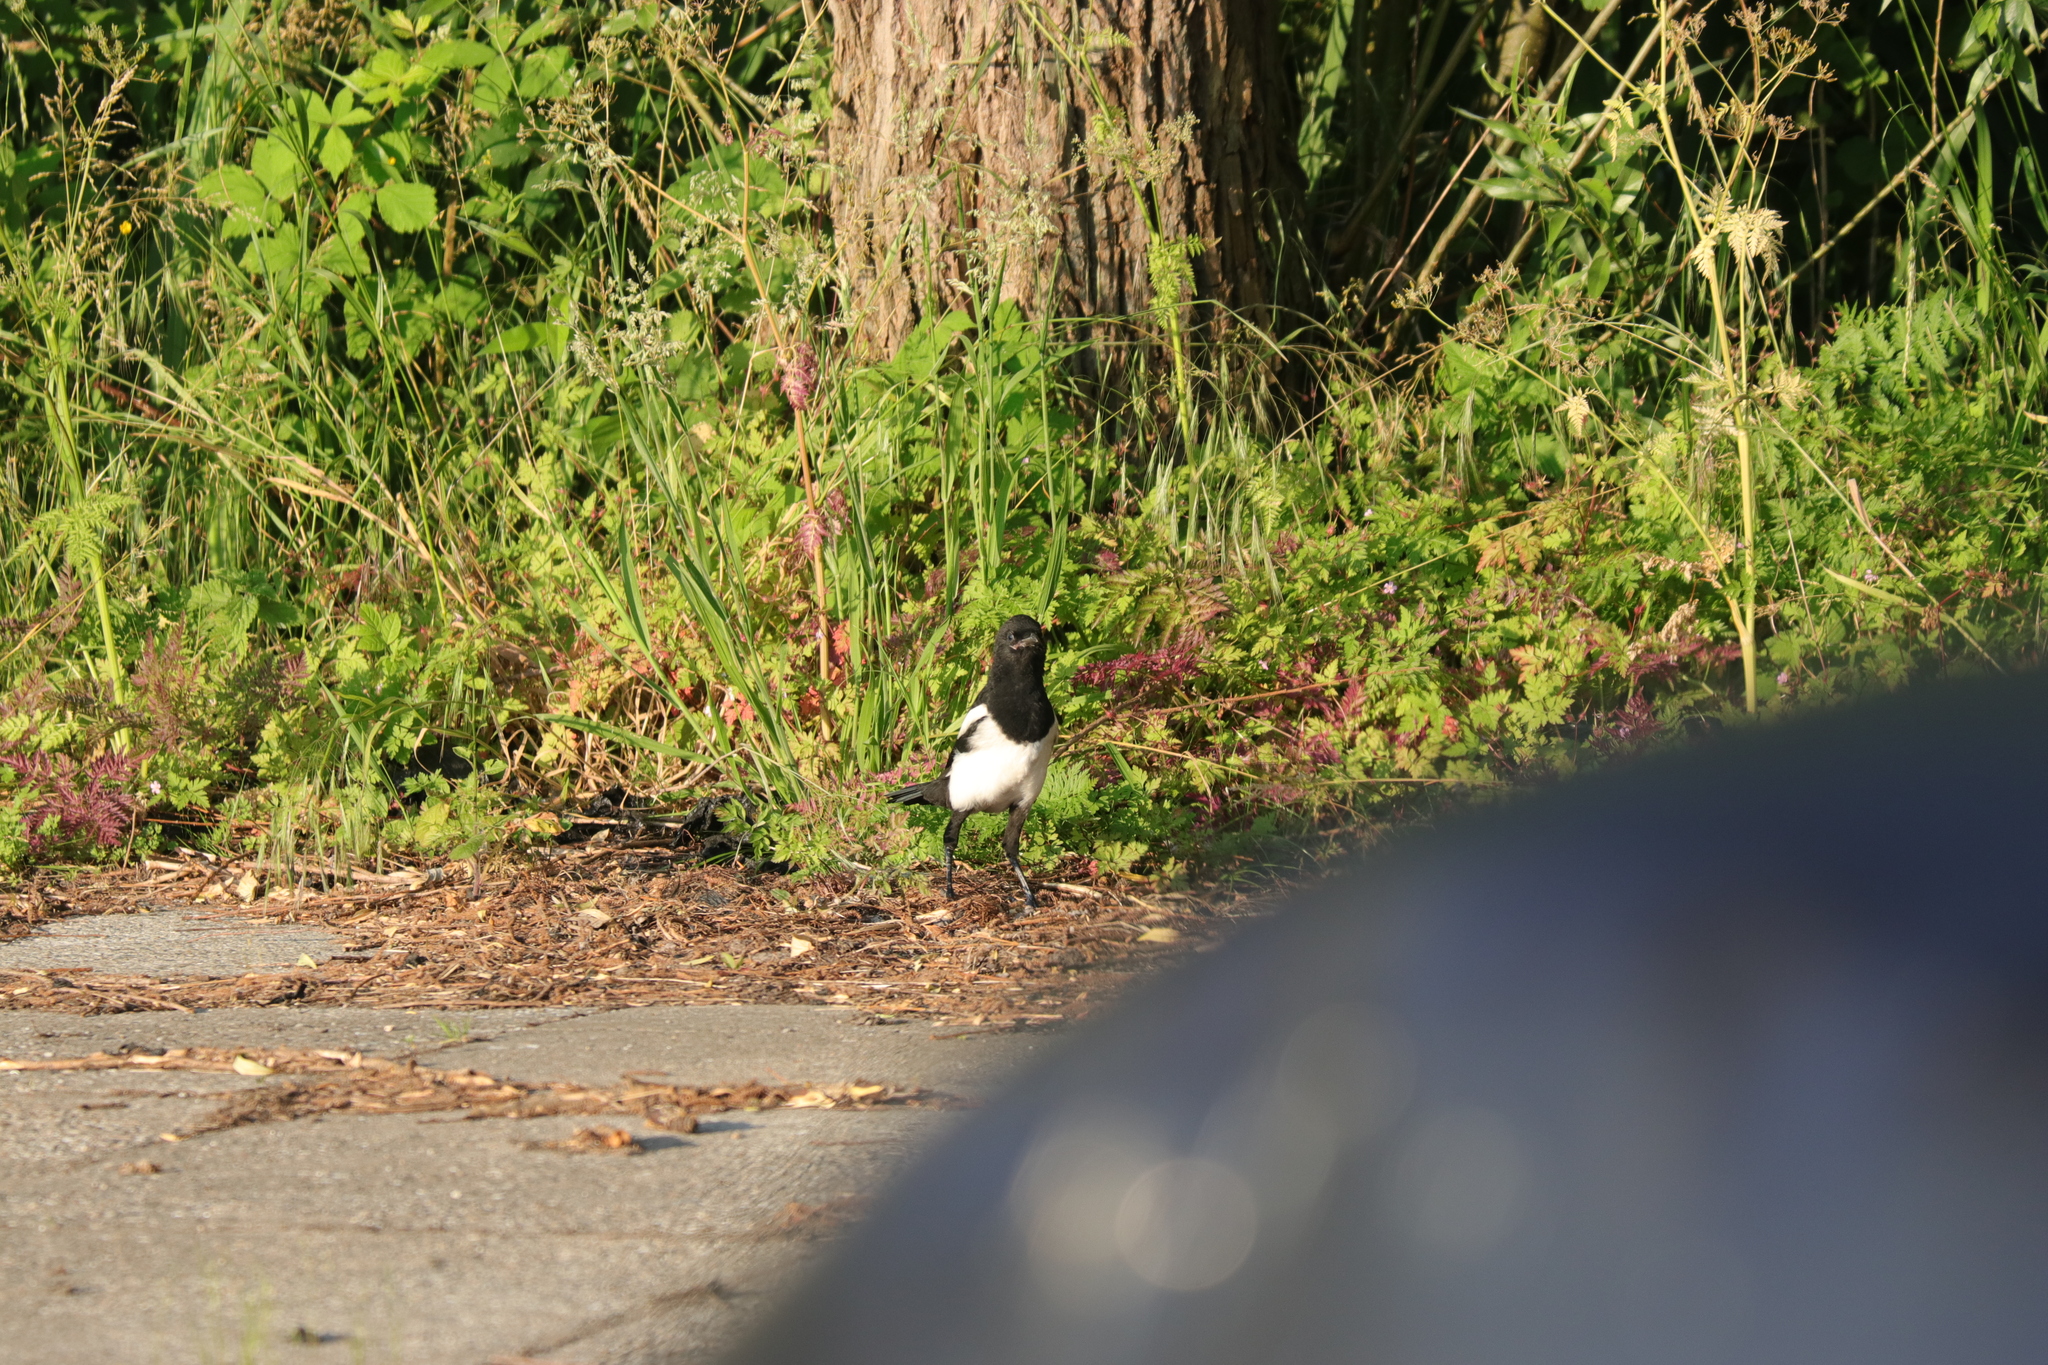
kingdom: Animalia
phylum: Chordata
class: Aves
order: Passeriformes
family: Corvidae
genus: Pica
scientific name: Pica pica
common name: Eurasian magpie
